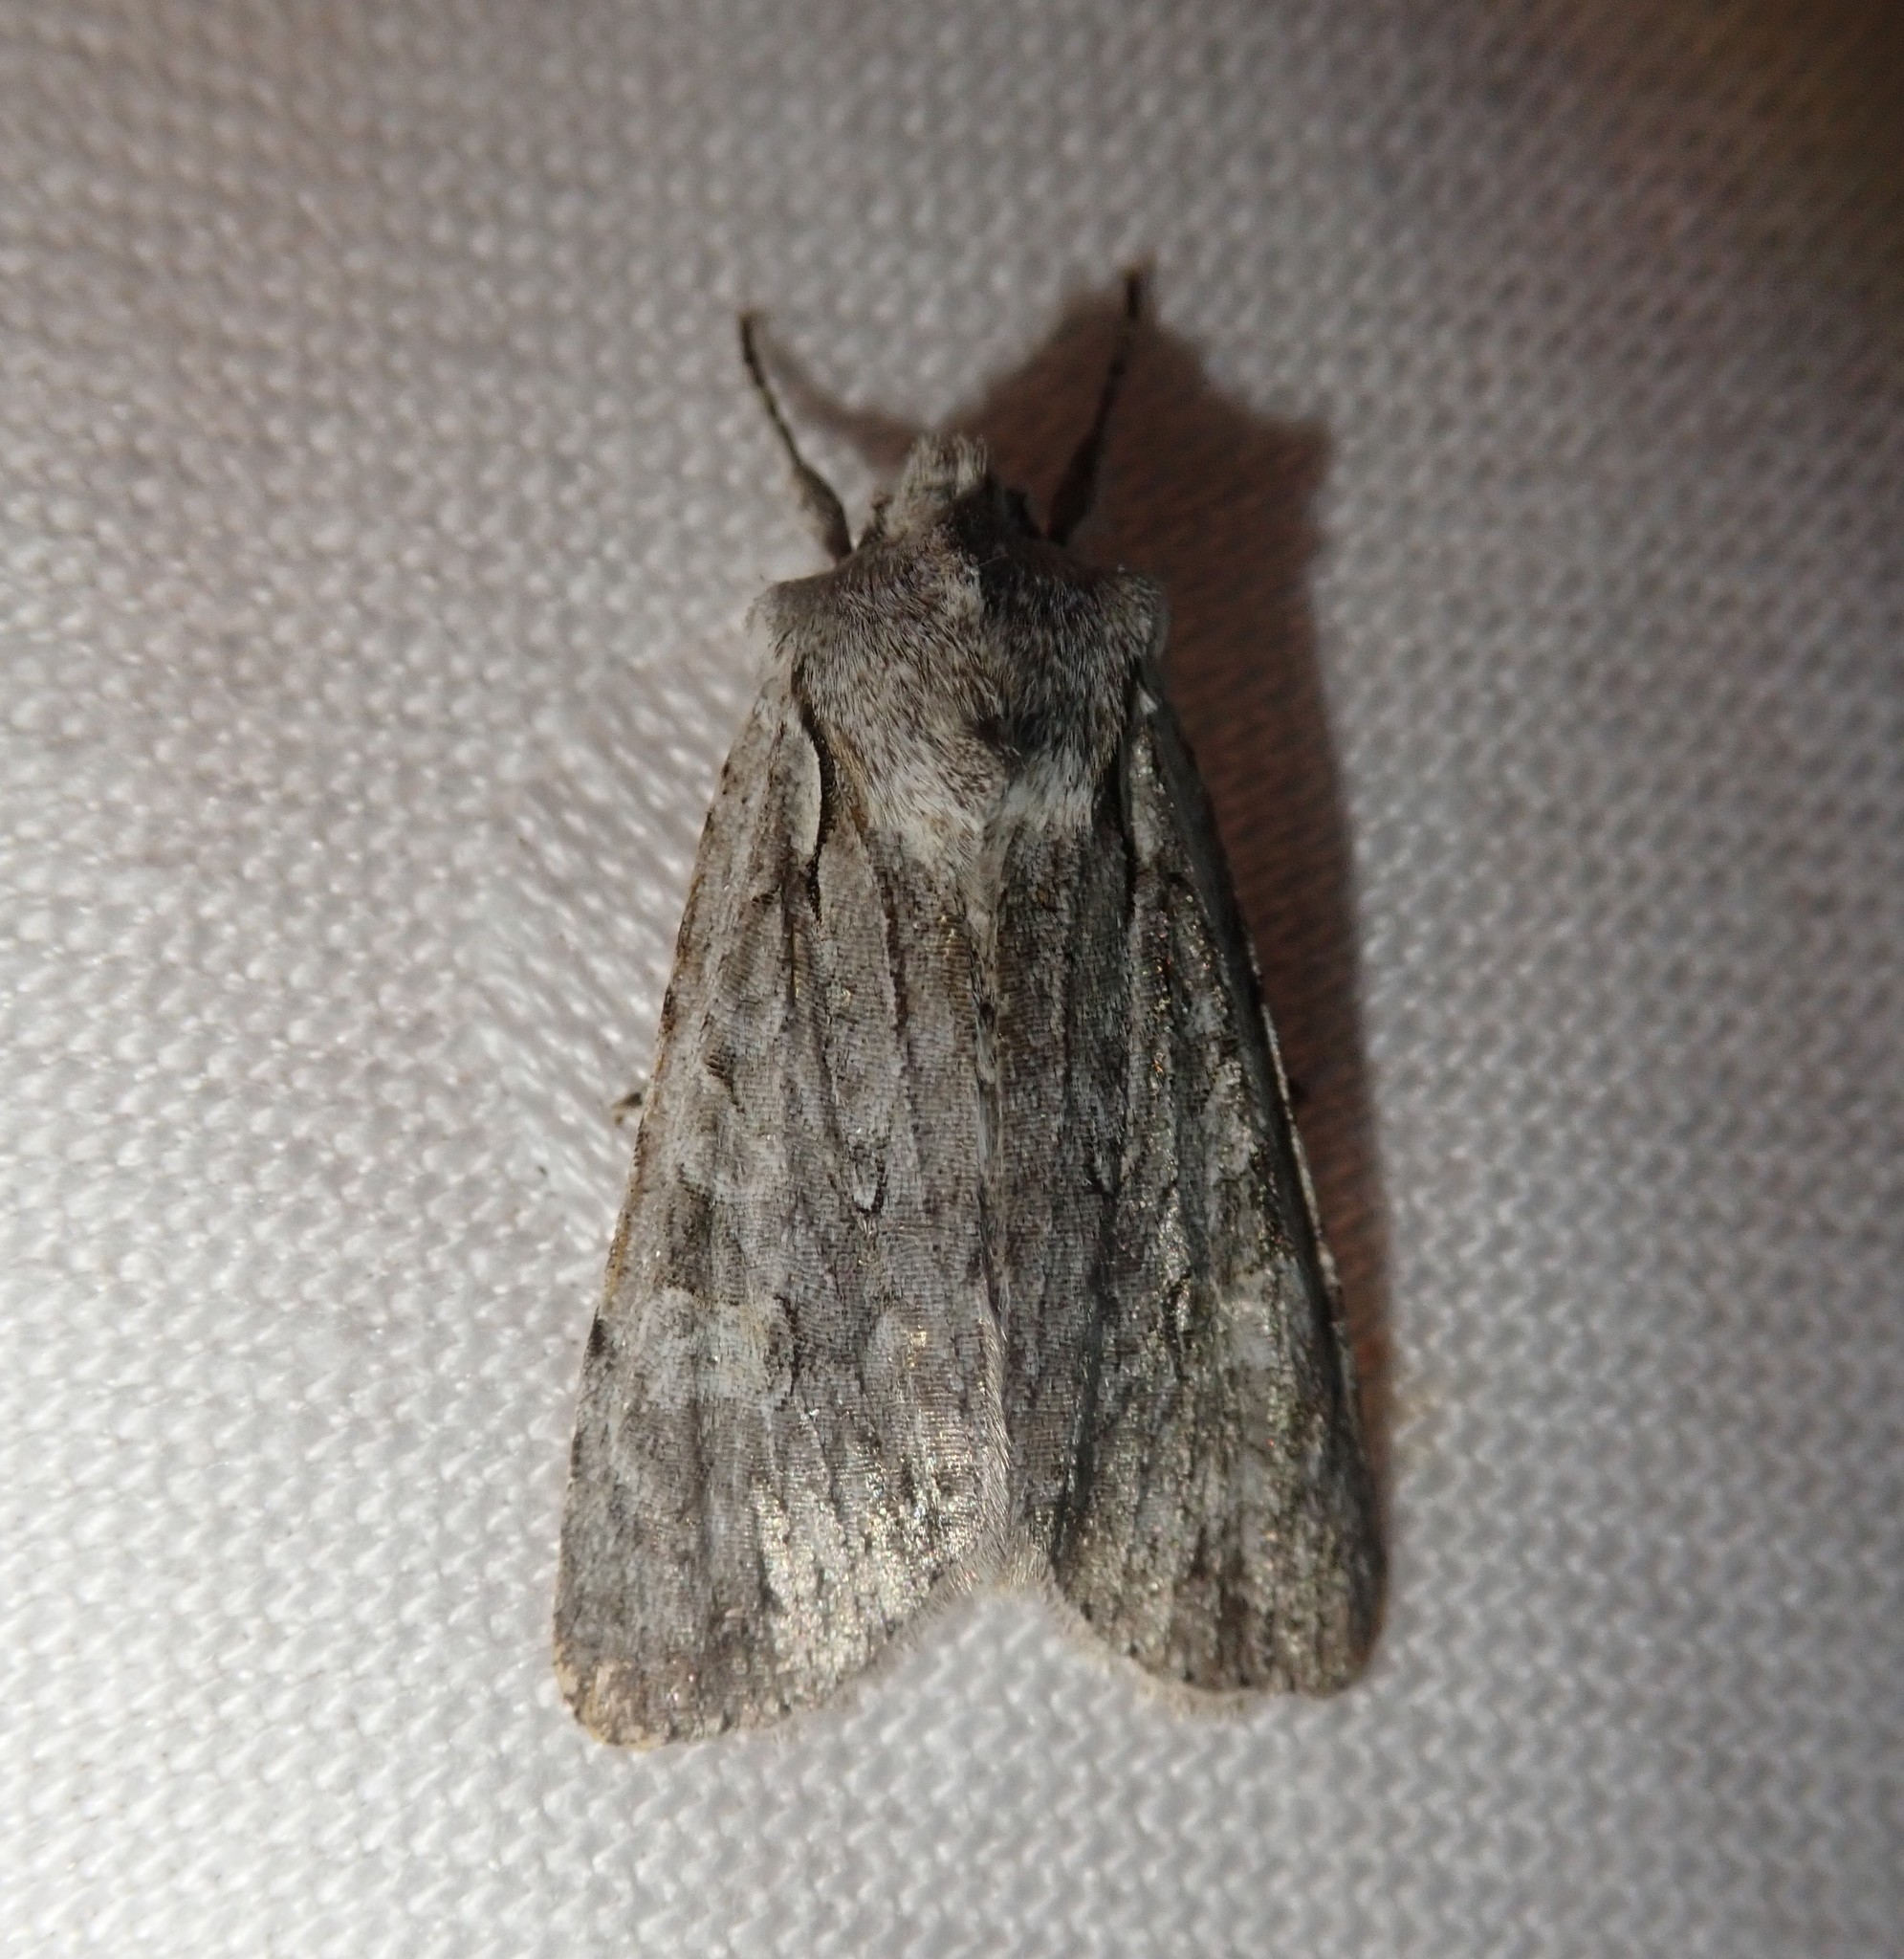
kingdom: Animalia
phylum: Arthropoda
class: Insecta
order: Lepidoptera
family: Noctuidae
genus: Lithophane
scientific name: Lithophane ornitopus
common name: Grey shoulder-knot
